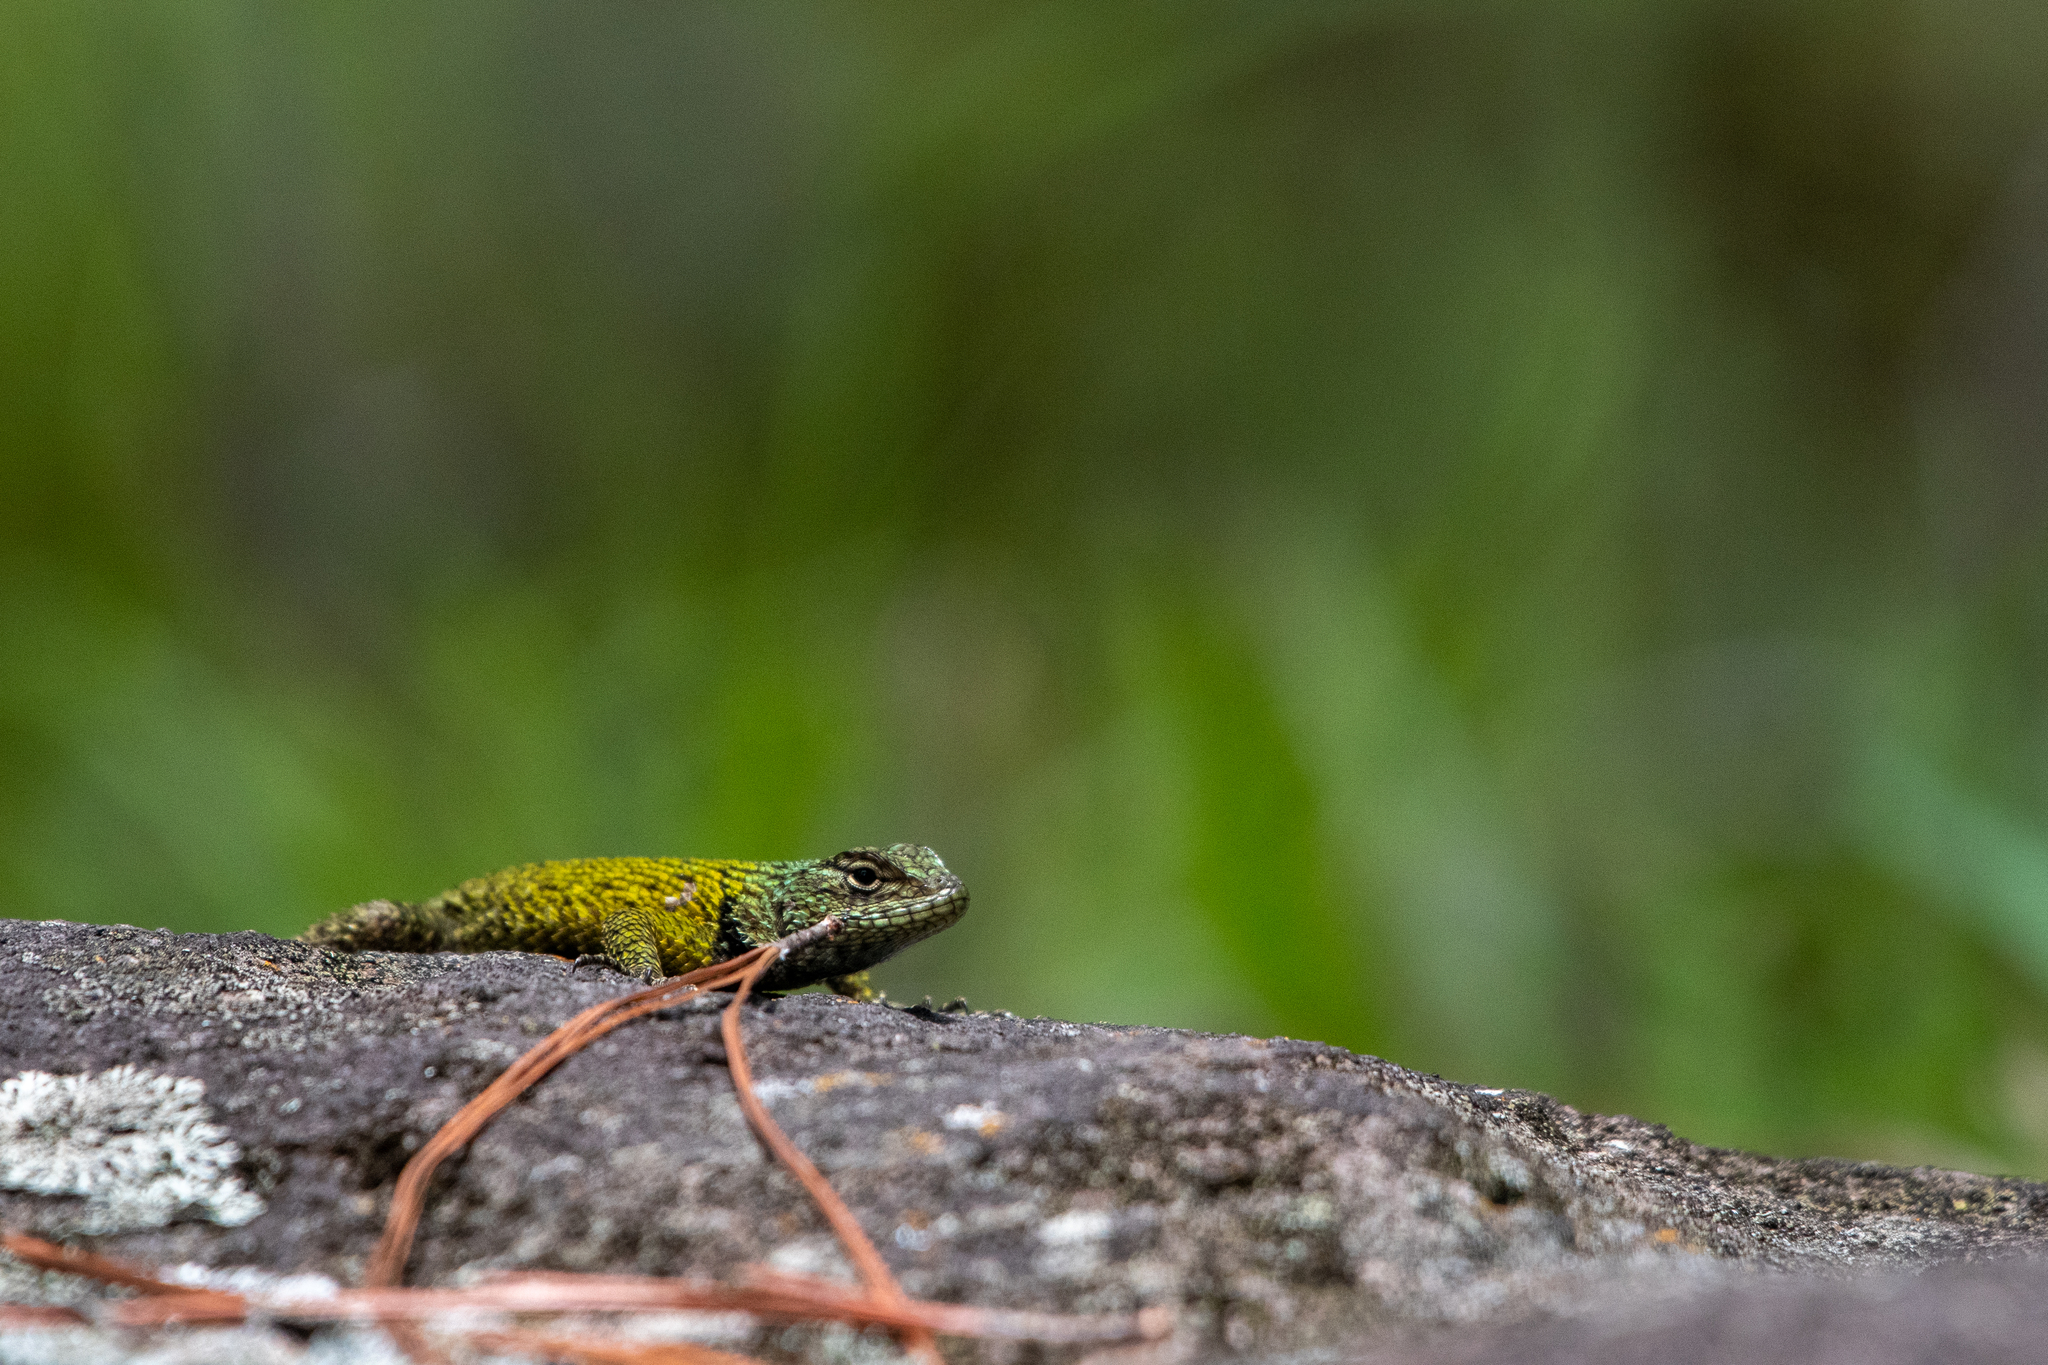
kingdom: Animalia
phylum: Chordata
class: Squamata
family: Phrynosomatidae
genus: Sceloporus
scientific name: Sceloporus esperanzae
